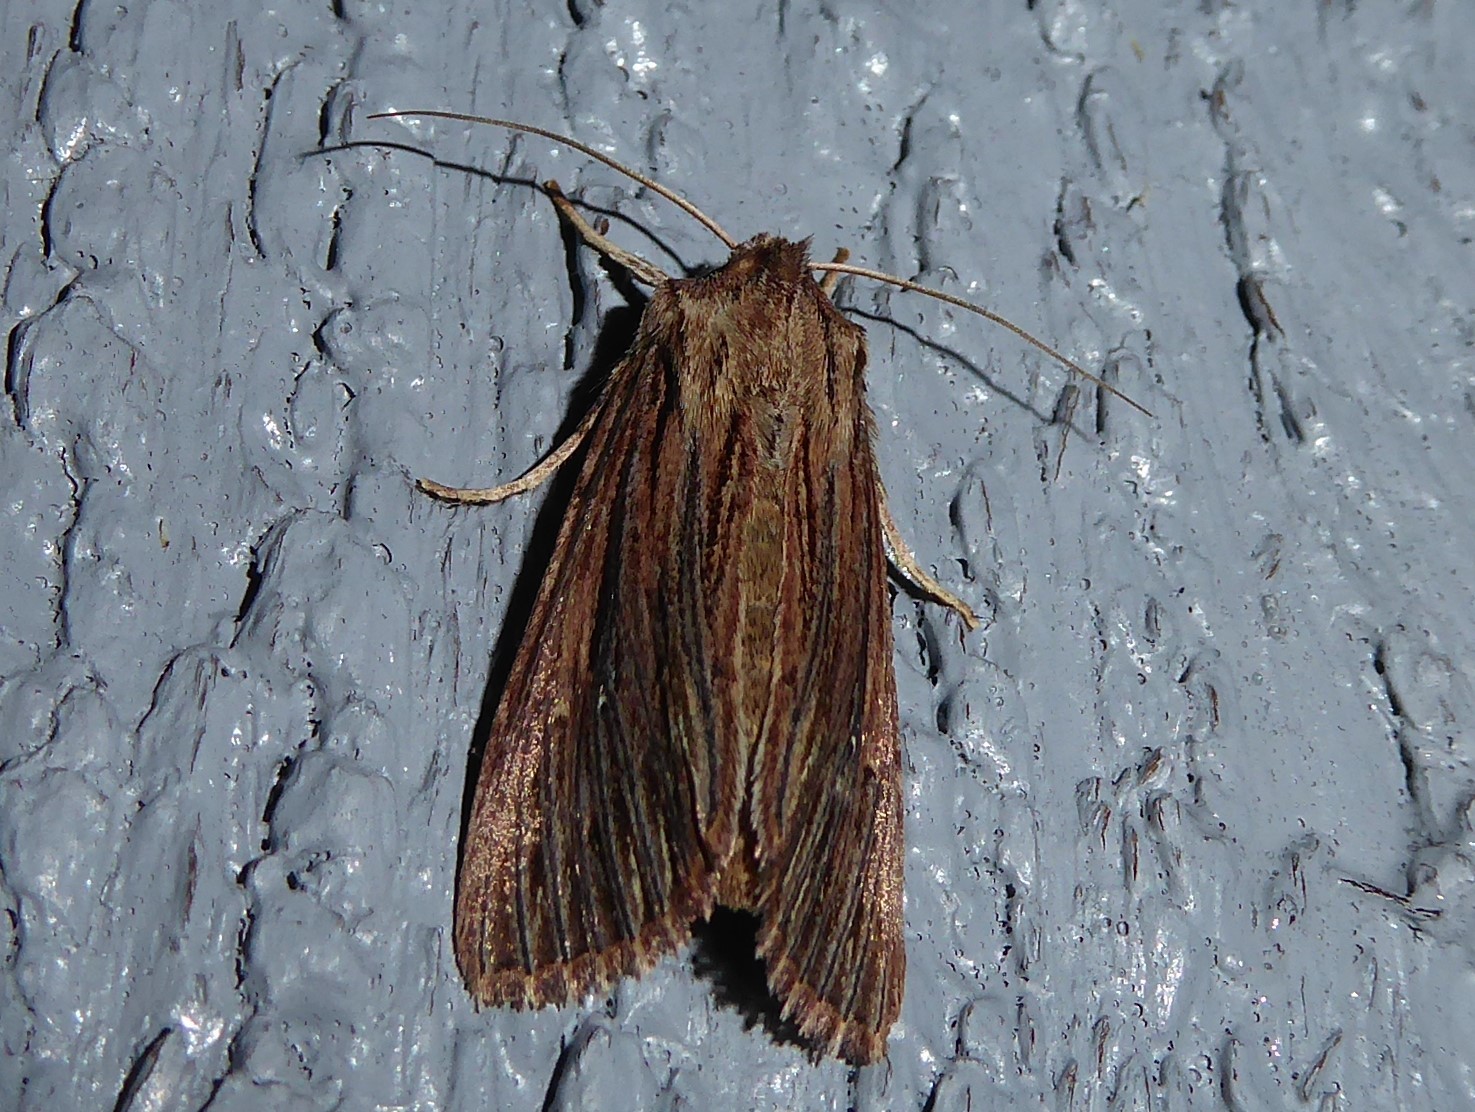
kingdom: Animalia
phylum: Arthropoda
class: Insecta
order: Lepidoptera
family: Noctuidae
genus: Ichneutica
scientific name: Ichneutica
